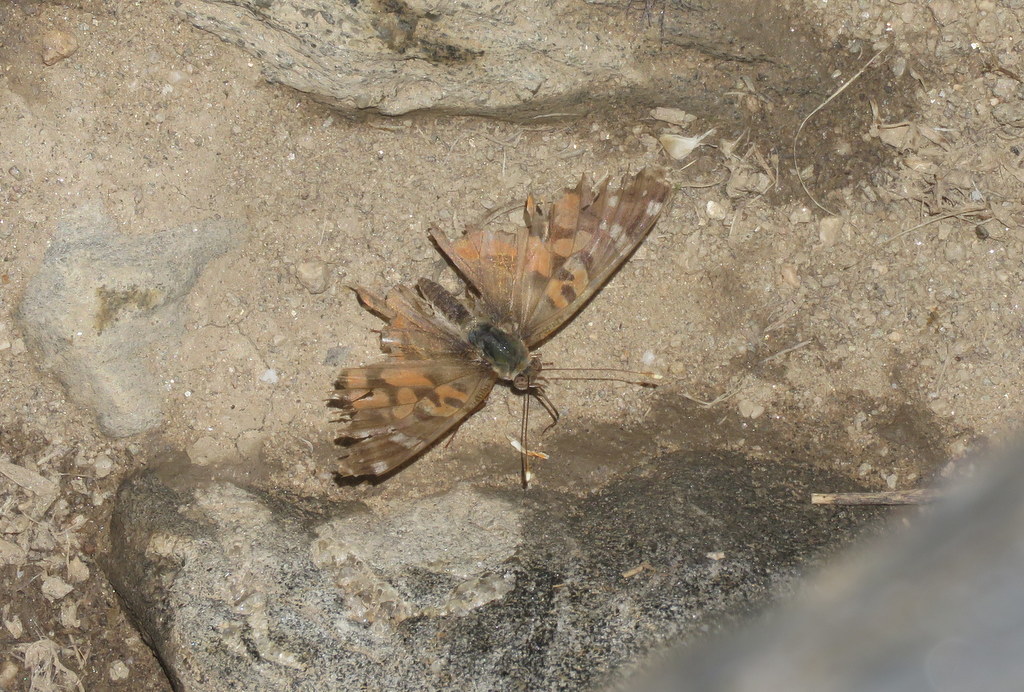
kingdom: Animalia
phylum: Arthropoda
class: Insecta
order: Lepidoptera
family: Nymphalidae
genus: Vanessa
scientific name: Vanessa braziliensis
